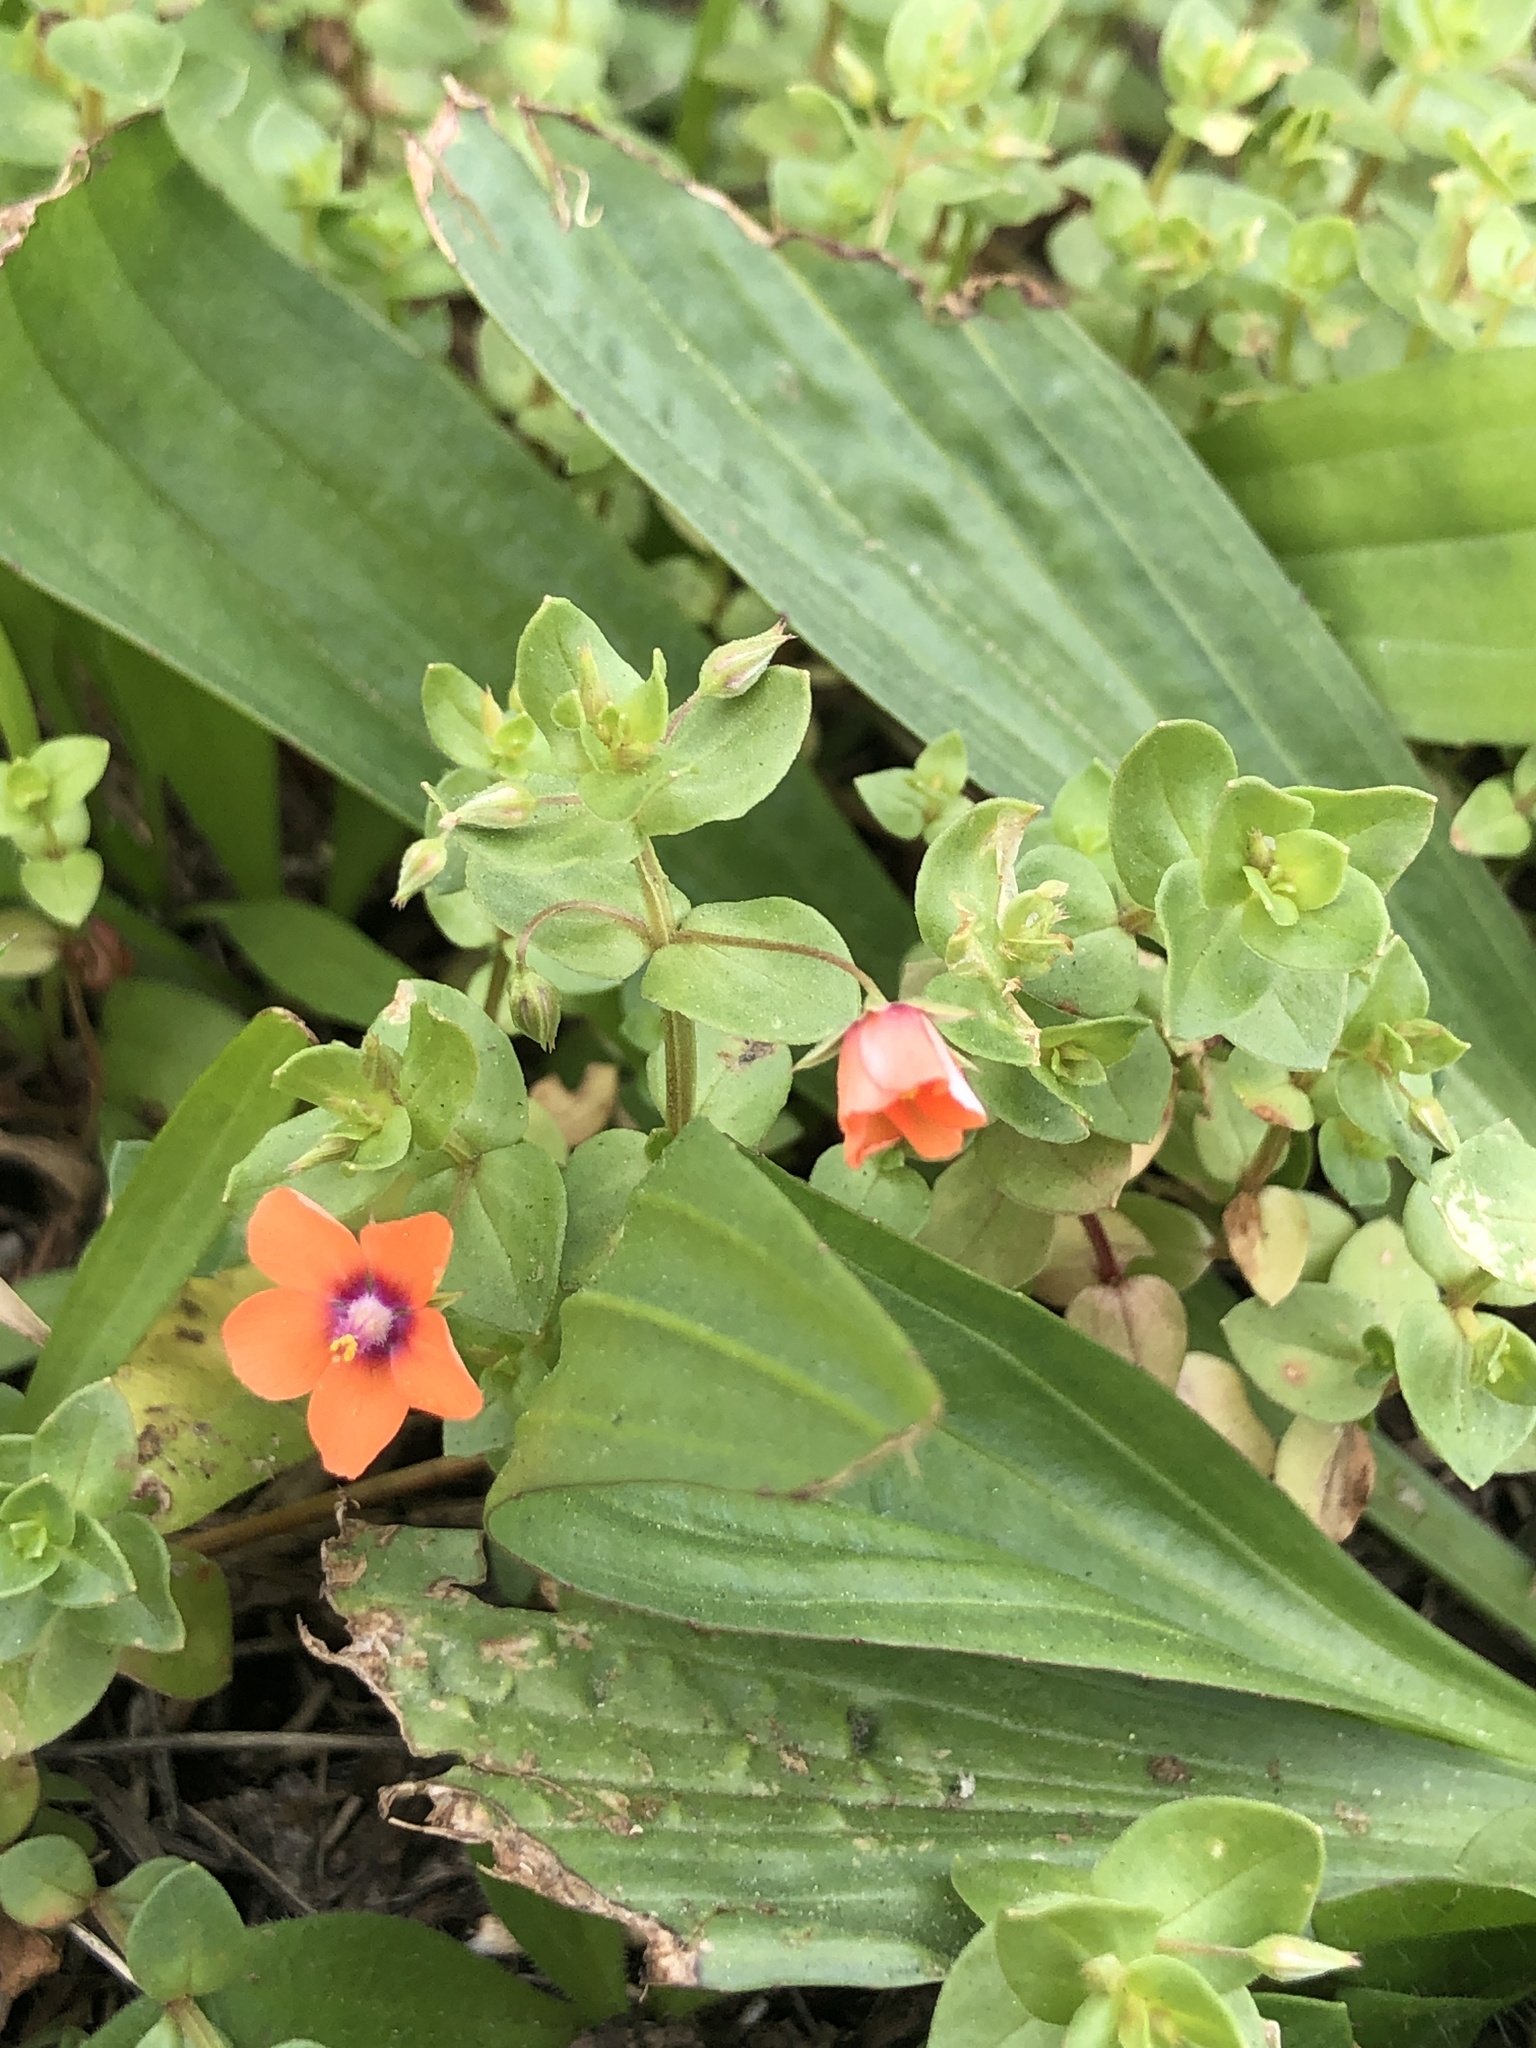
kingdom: Plantae
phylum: Tracheophyta
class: Magnoliopsida
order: Ericales
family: Primulaceae
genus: Lysimachia
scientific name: Lysimachia arvensis
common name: Scarlet pimpernel
